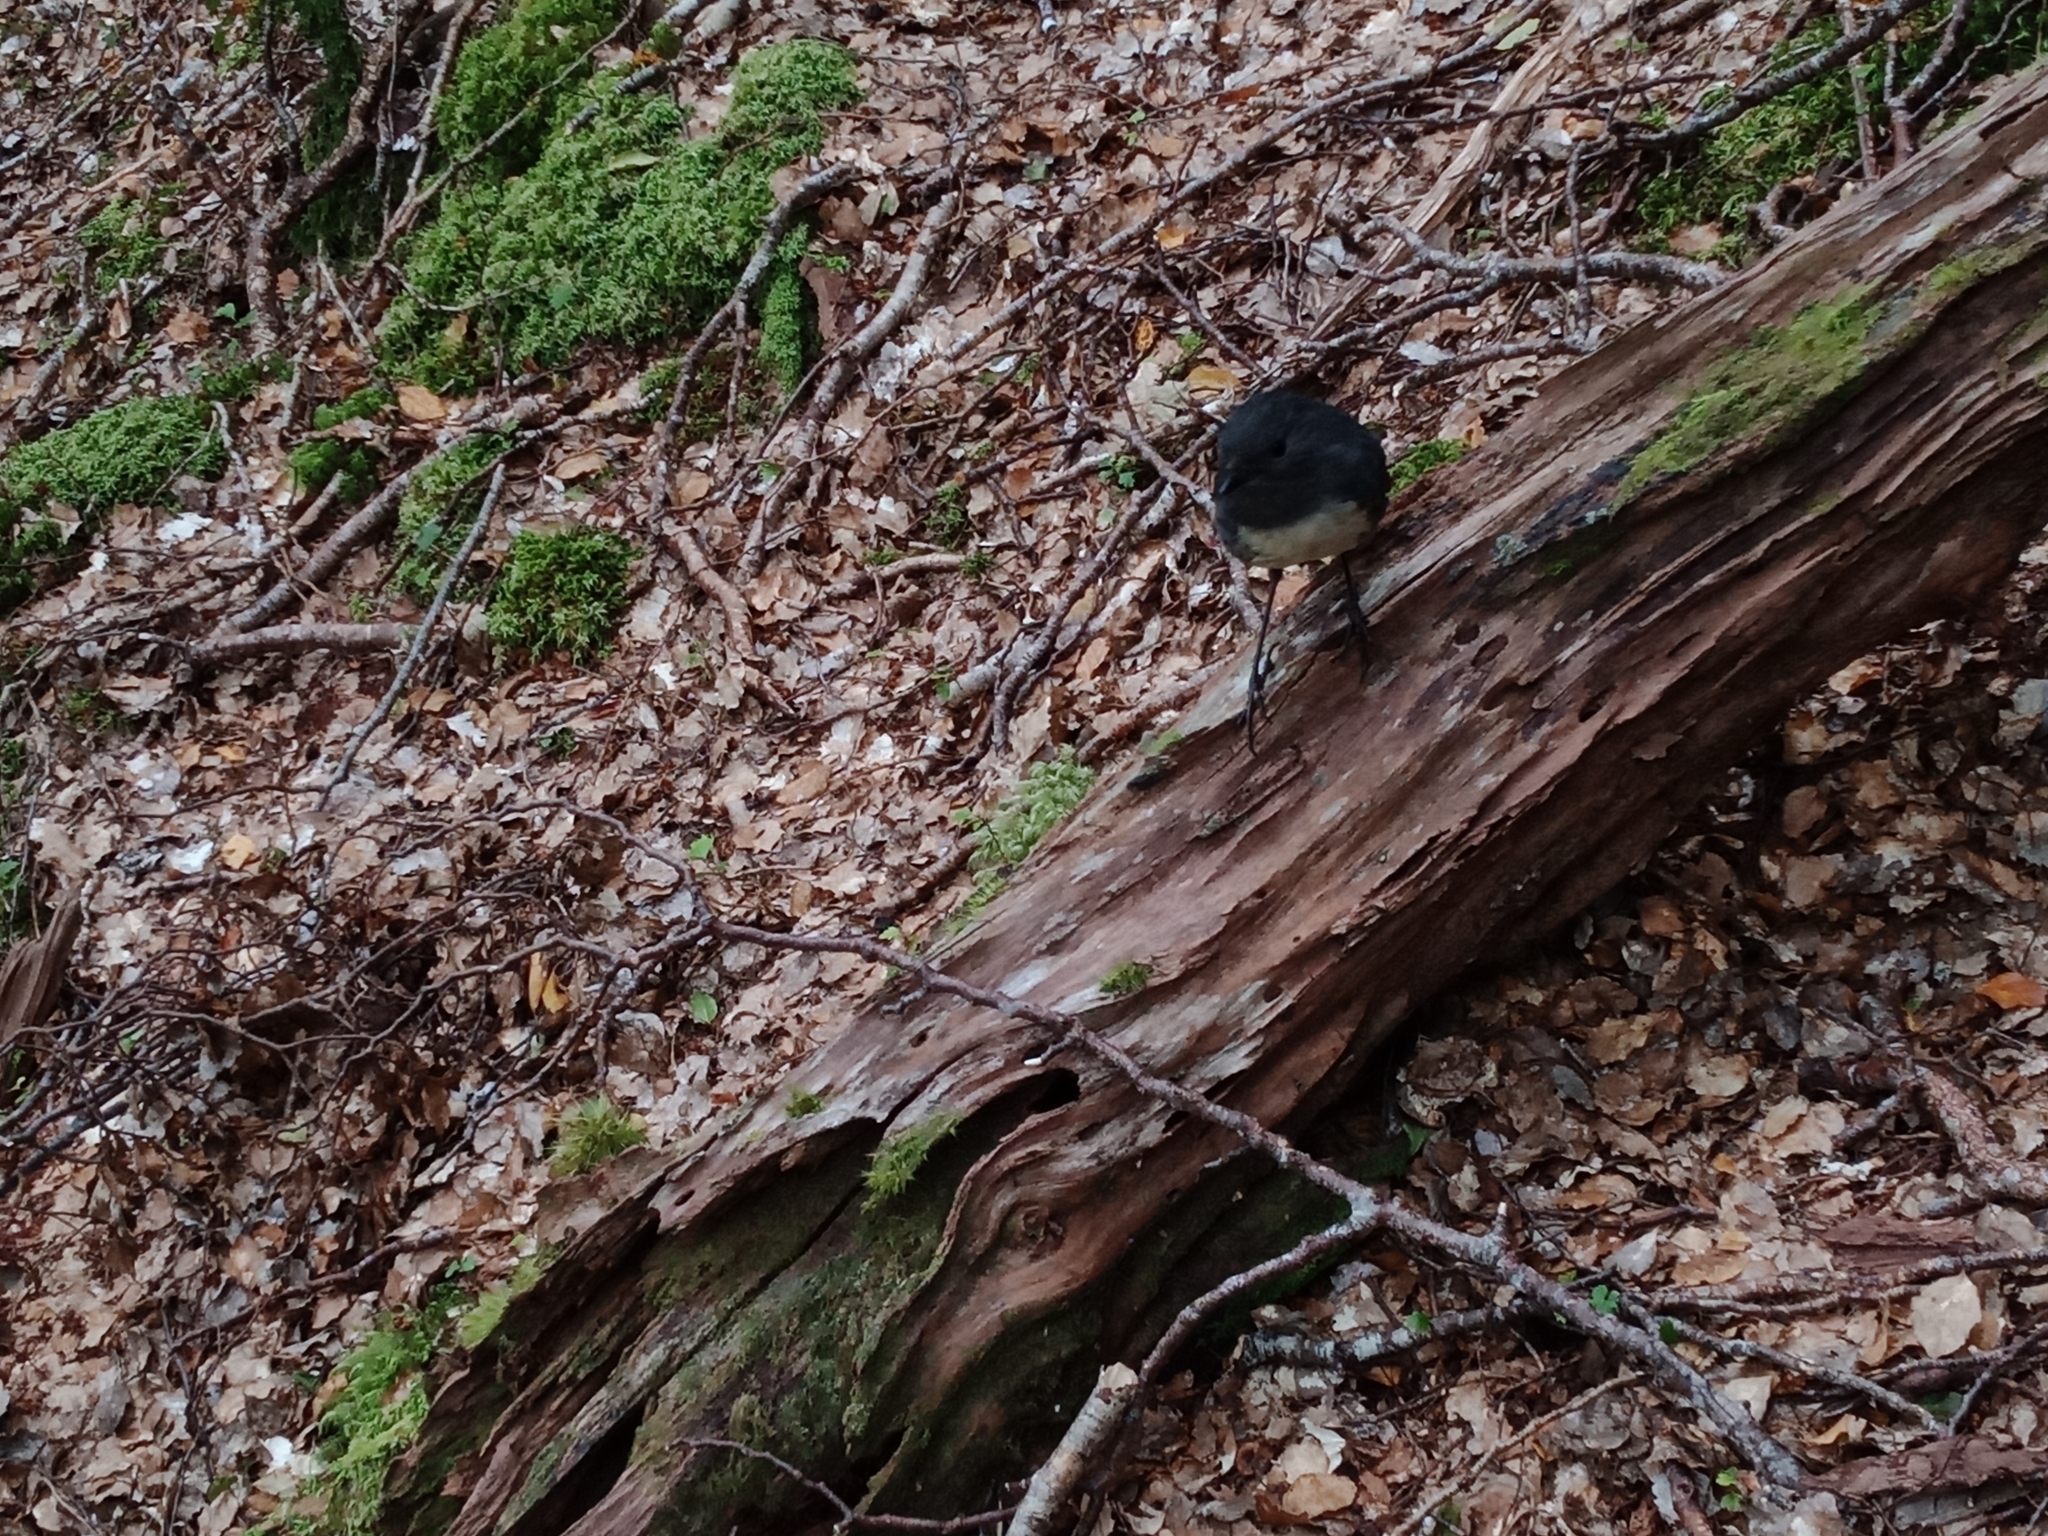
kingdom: Animalia
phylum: Chordata
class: Aves
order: Passeriformes
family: Petroicidae
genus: Petroica
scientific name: Petroica australis
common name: New zealand robin
